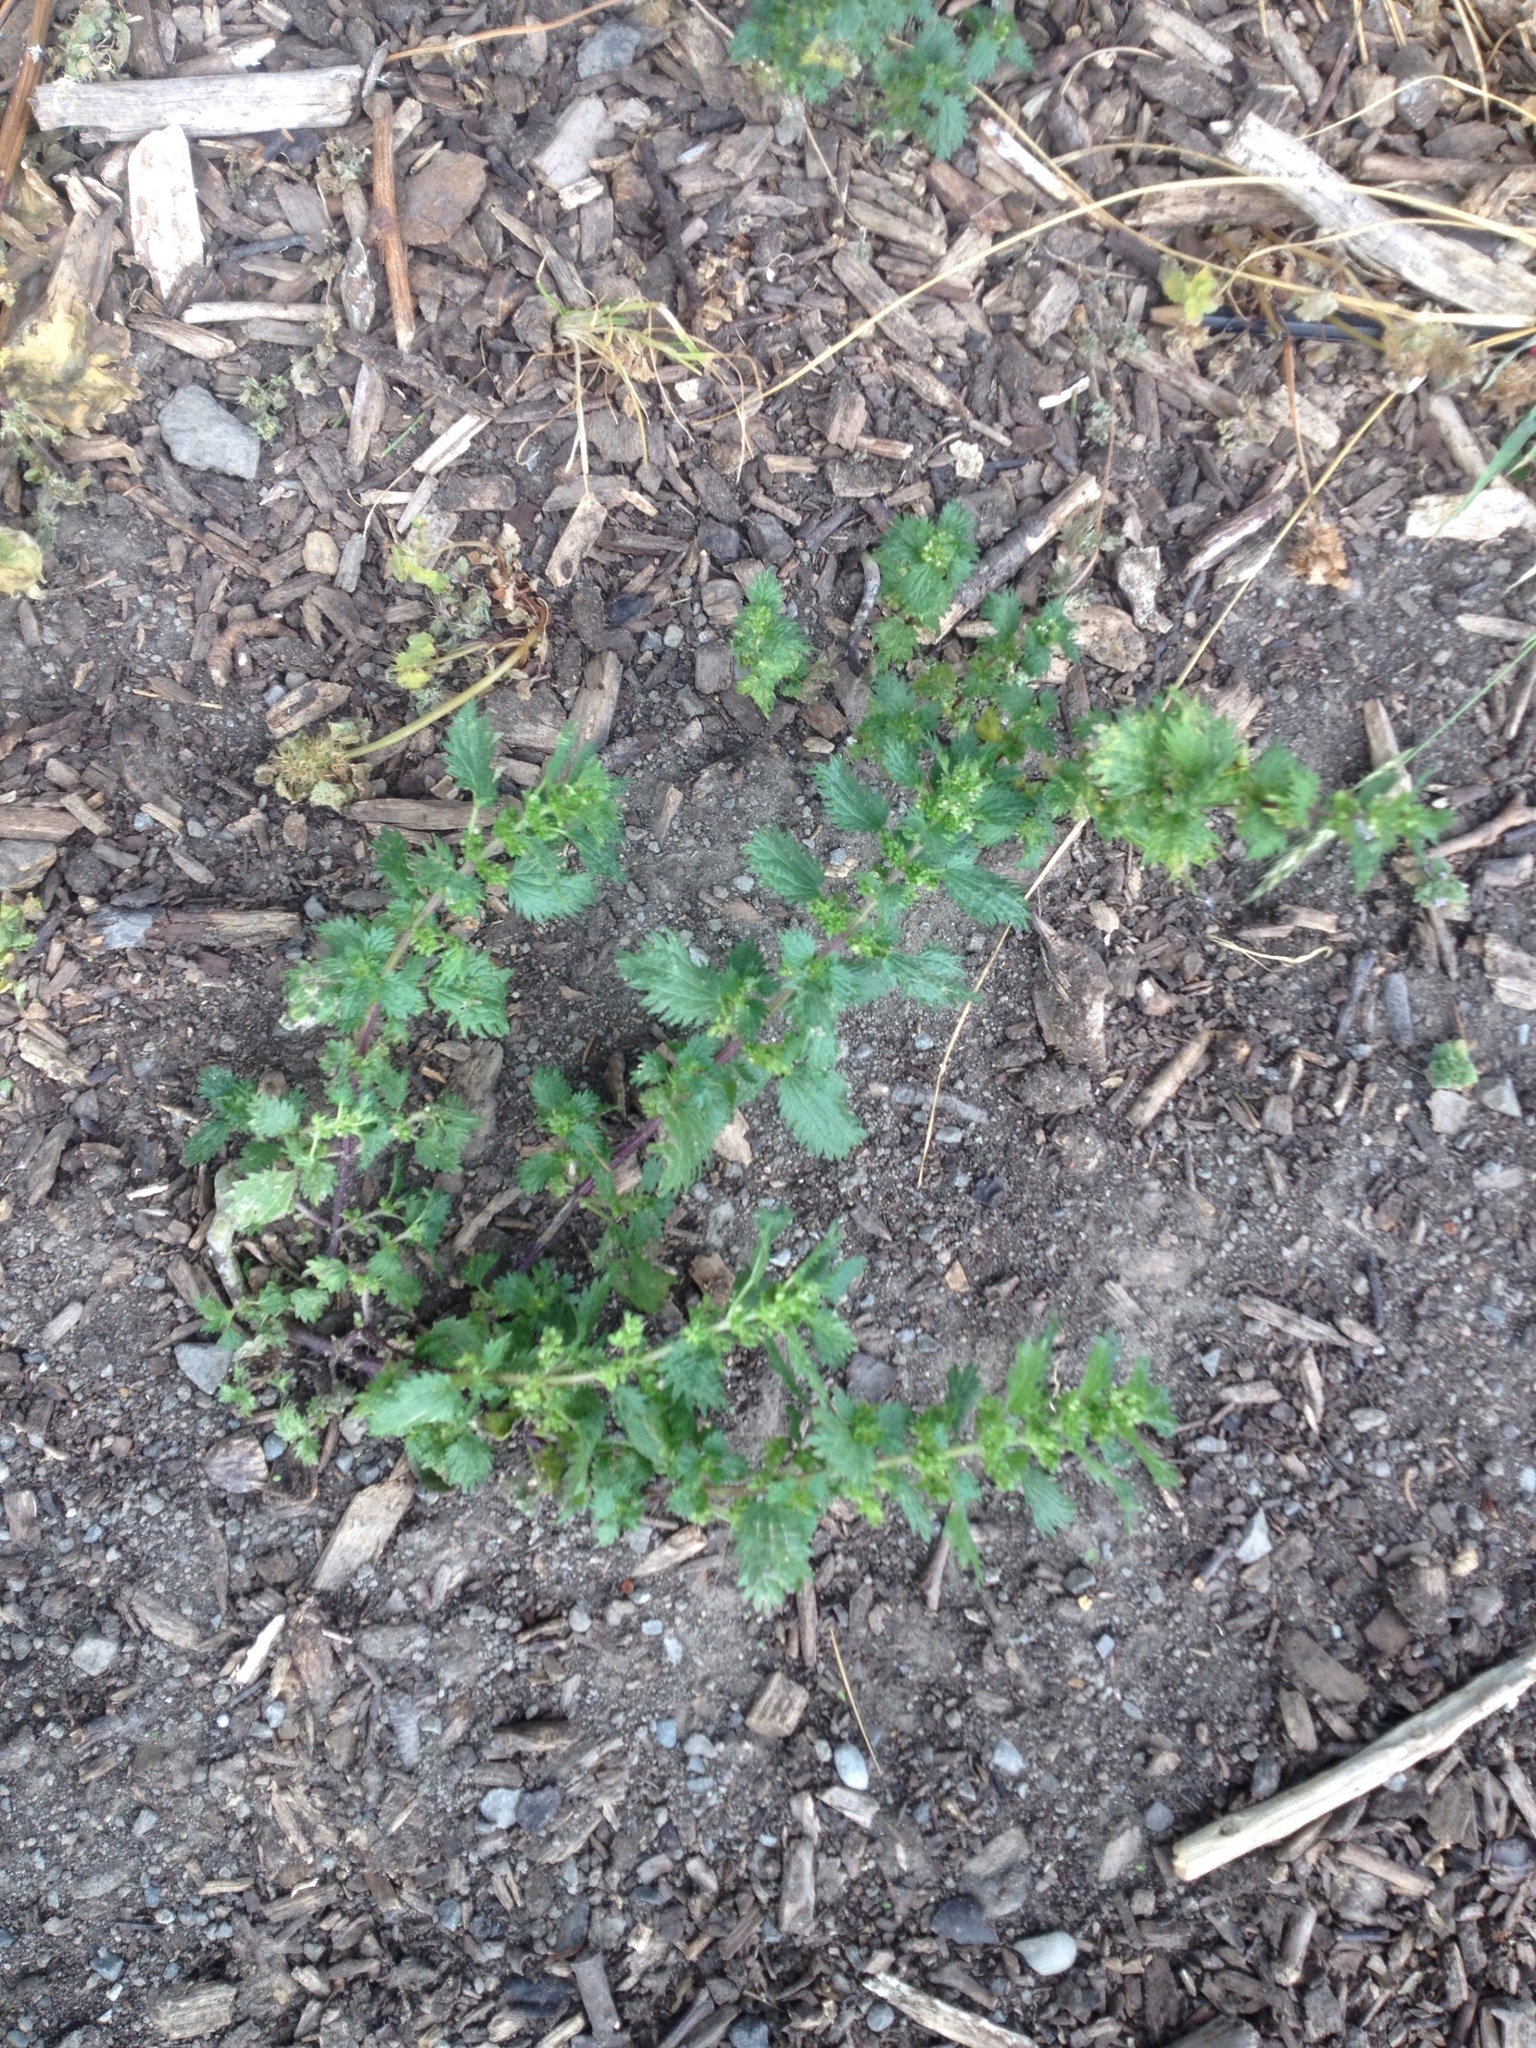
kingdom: Plantae
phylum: Tracheophyta
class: Magnoliopsida
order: Rosales
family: Urticaceae
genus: Urtica
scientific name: Urtica urens
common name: Dwarf nettle
